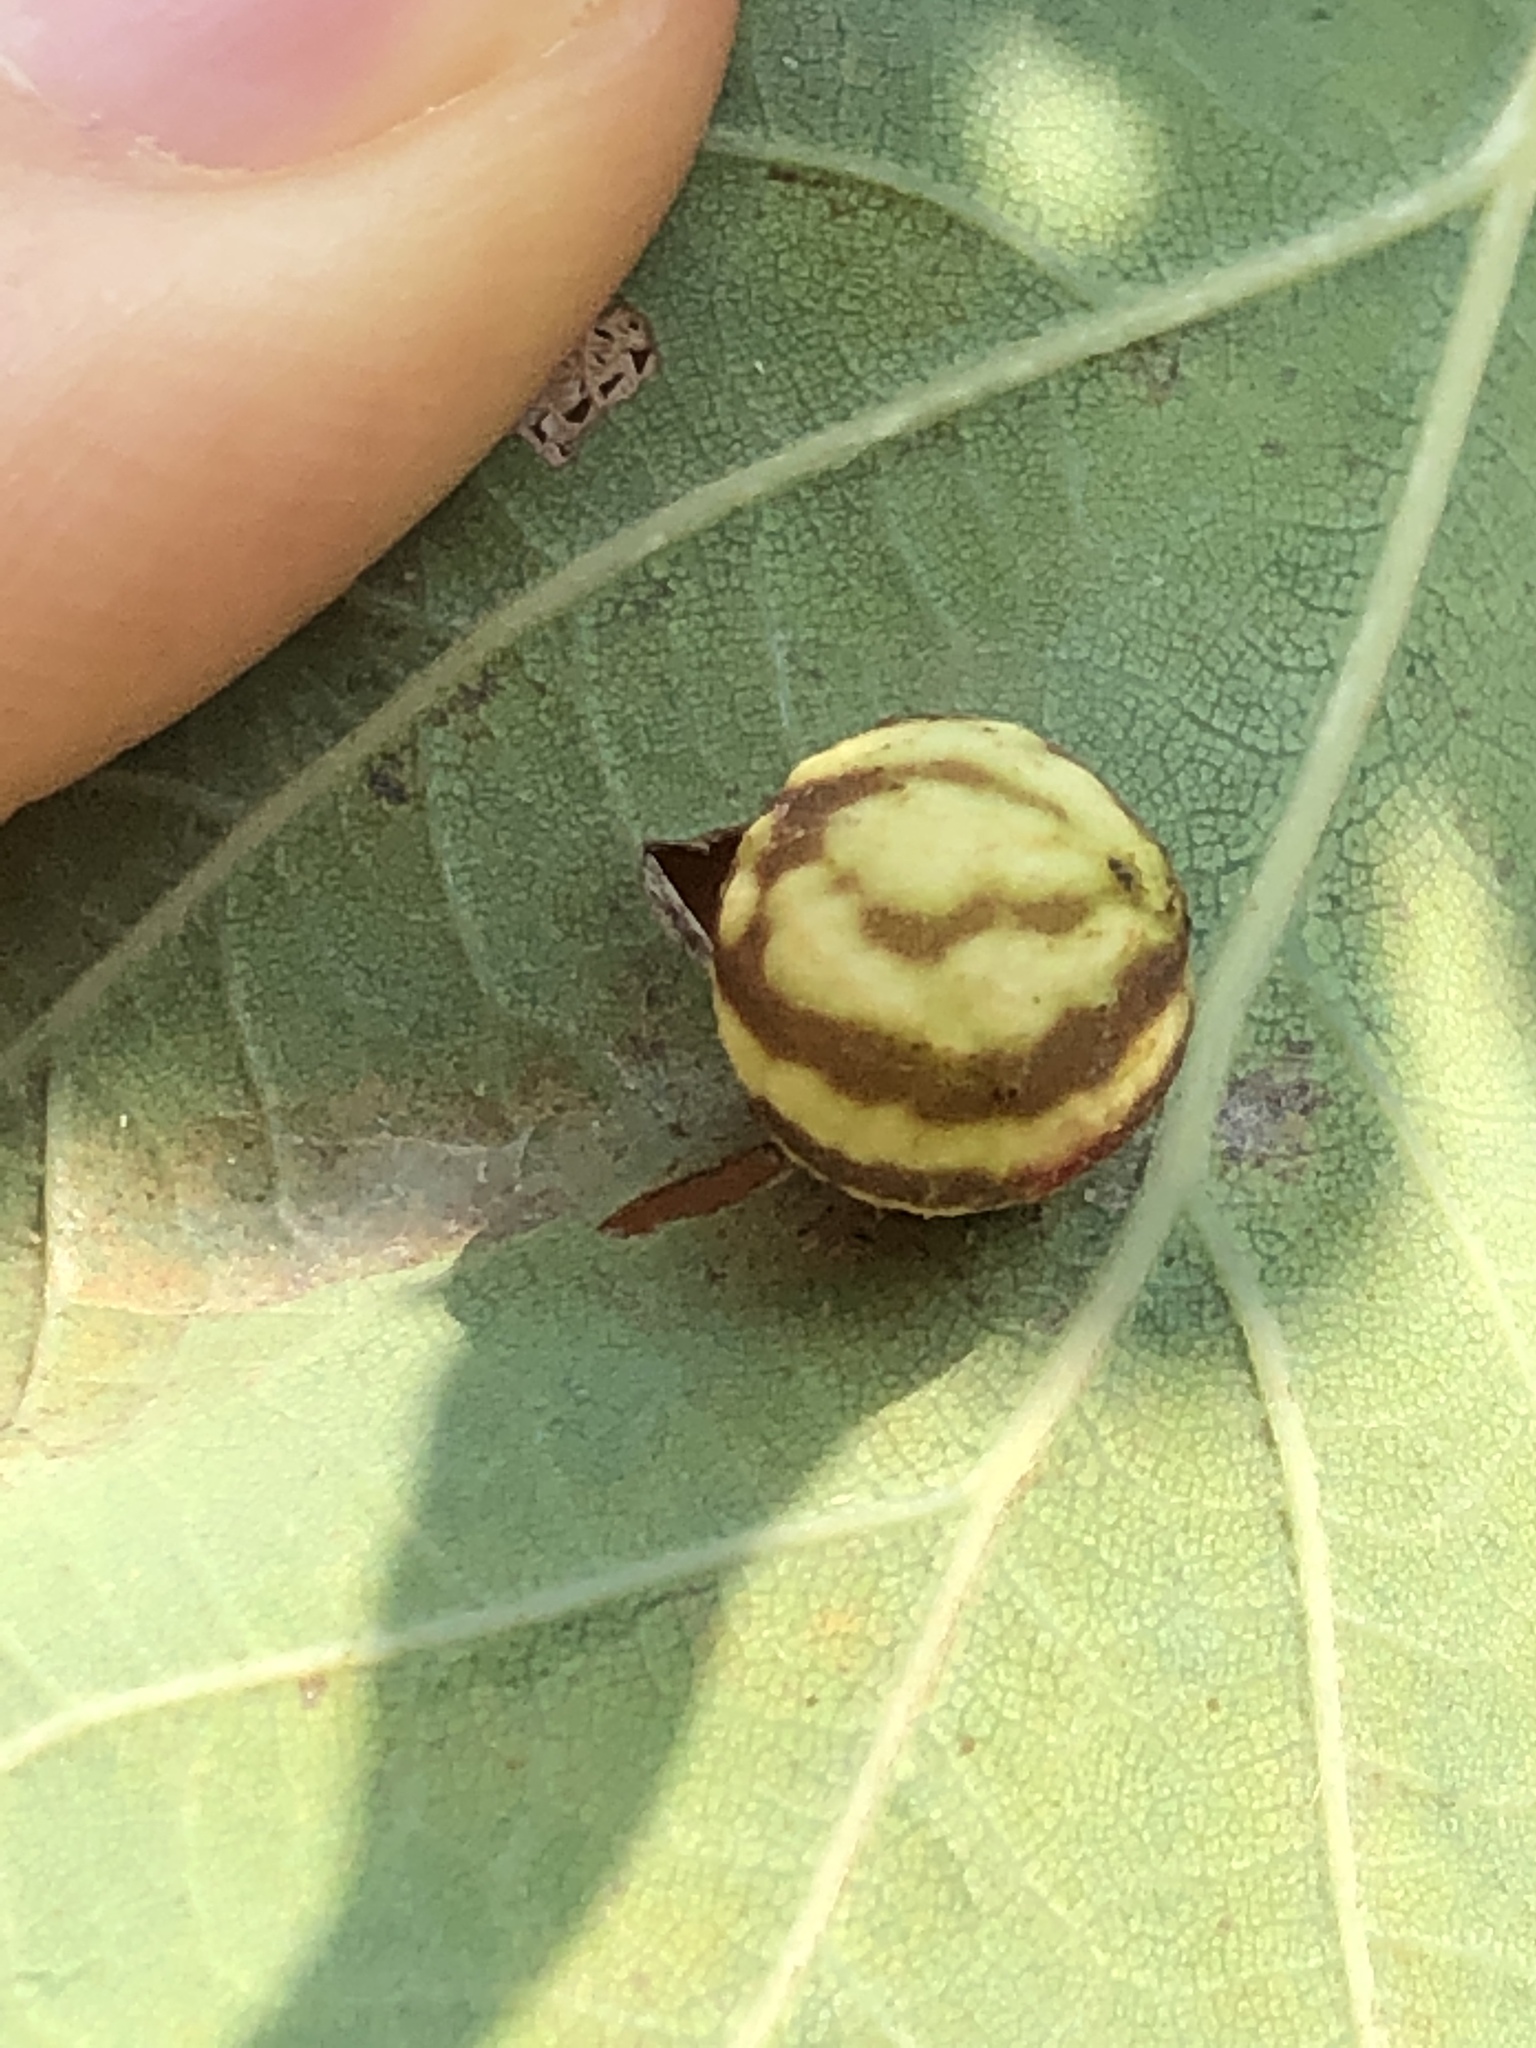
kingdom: Animalia
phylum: Arthropoda
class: Insecta
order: Hymenoptera
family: Cynipidae
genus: Cynips
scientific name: Cynips longiventris
